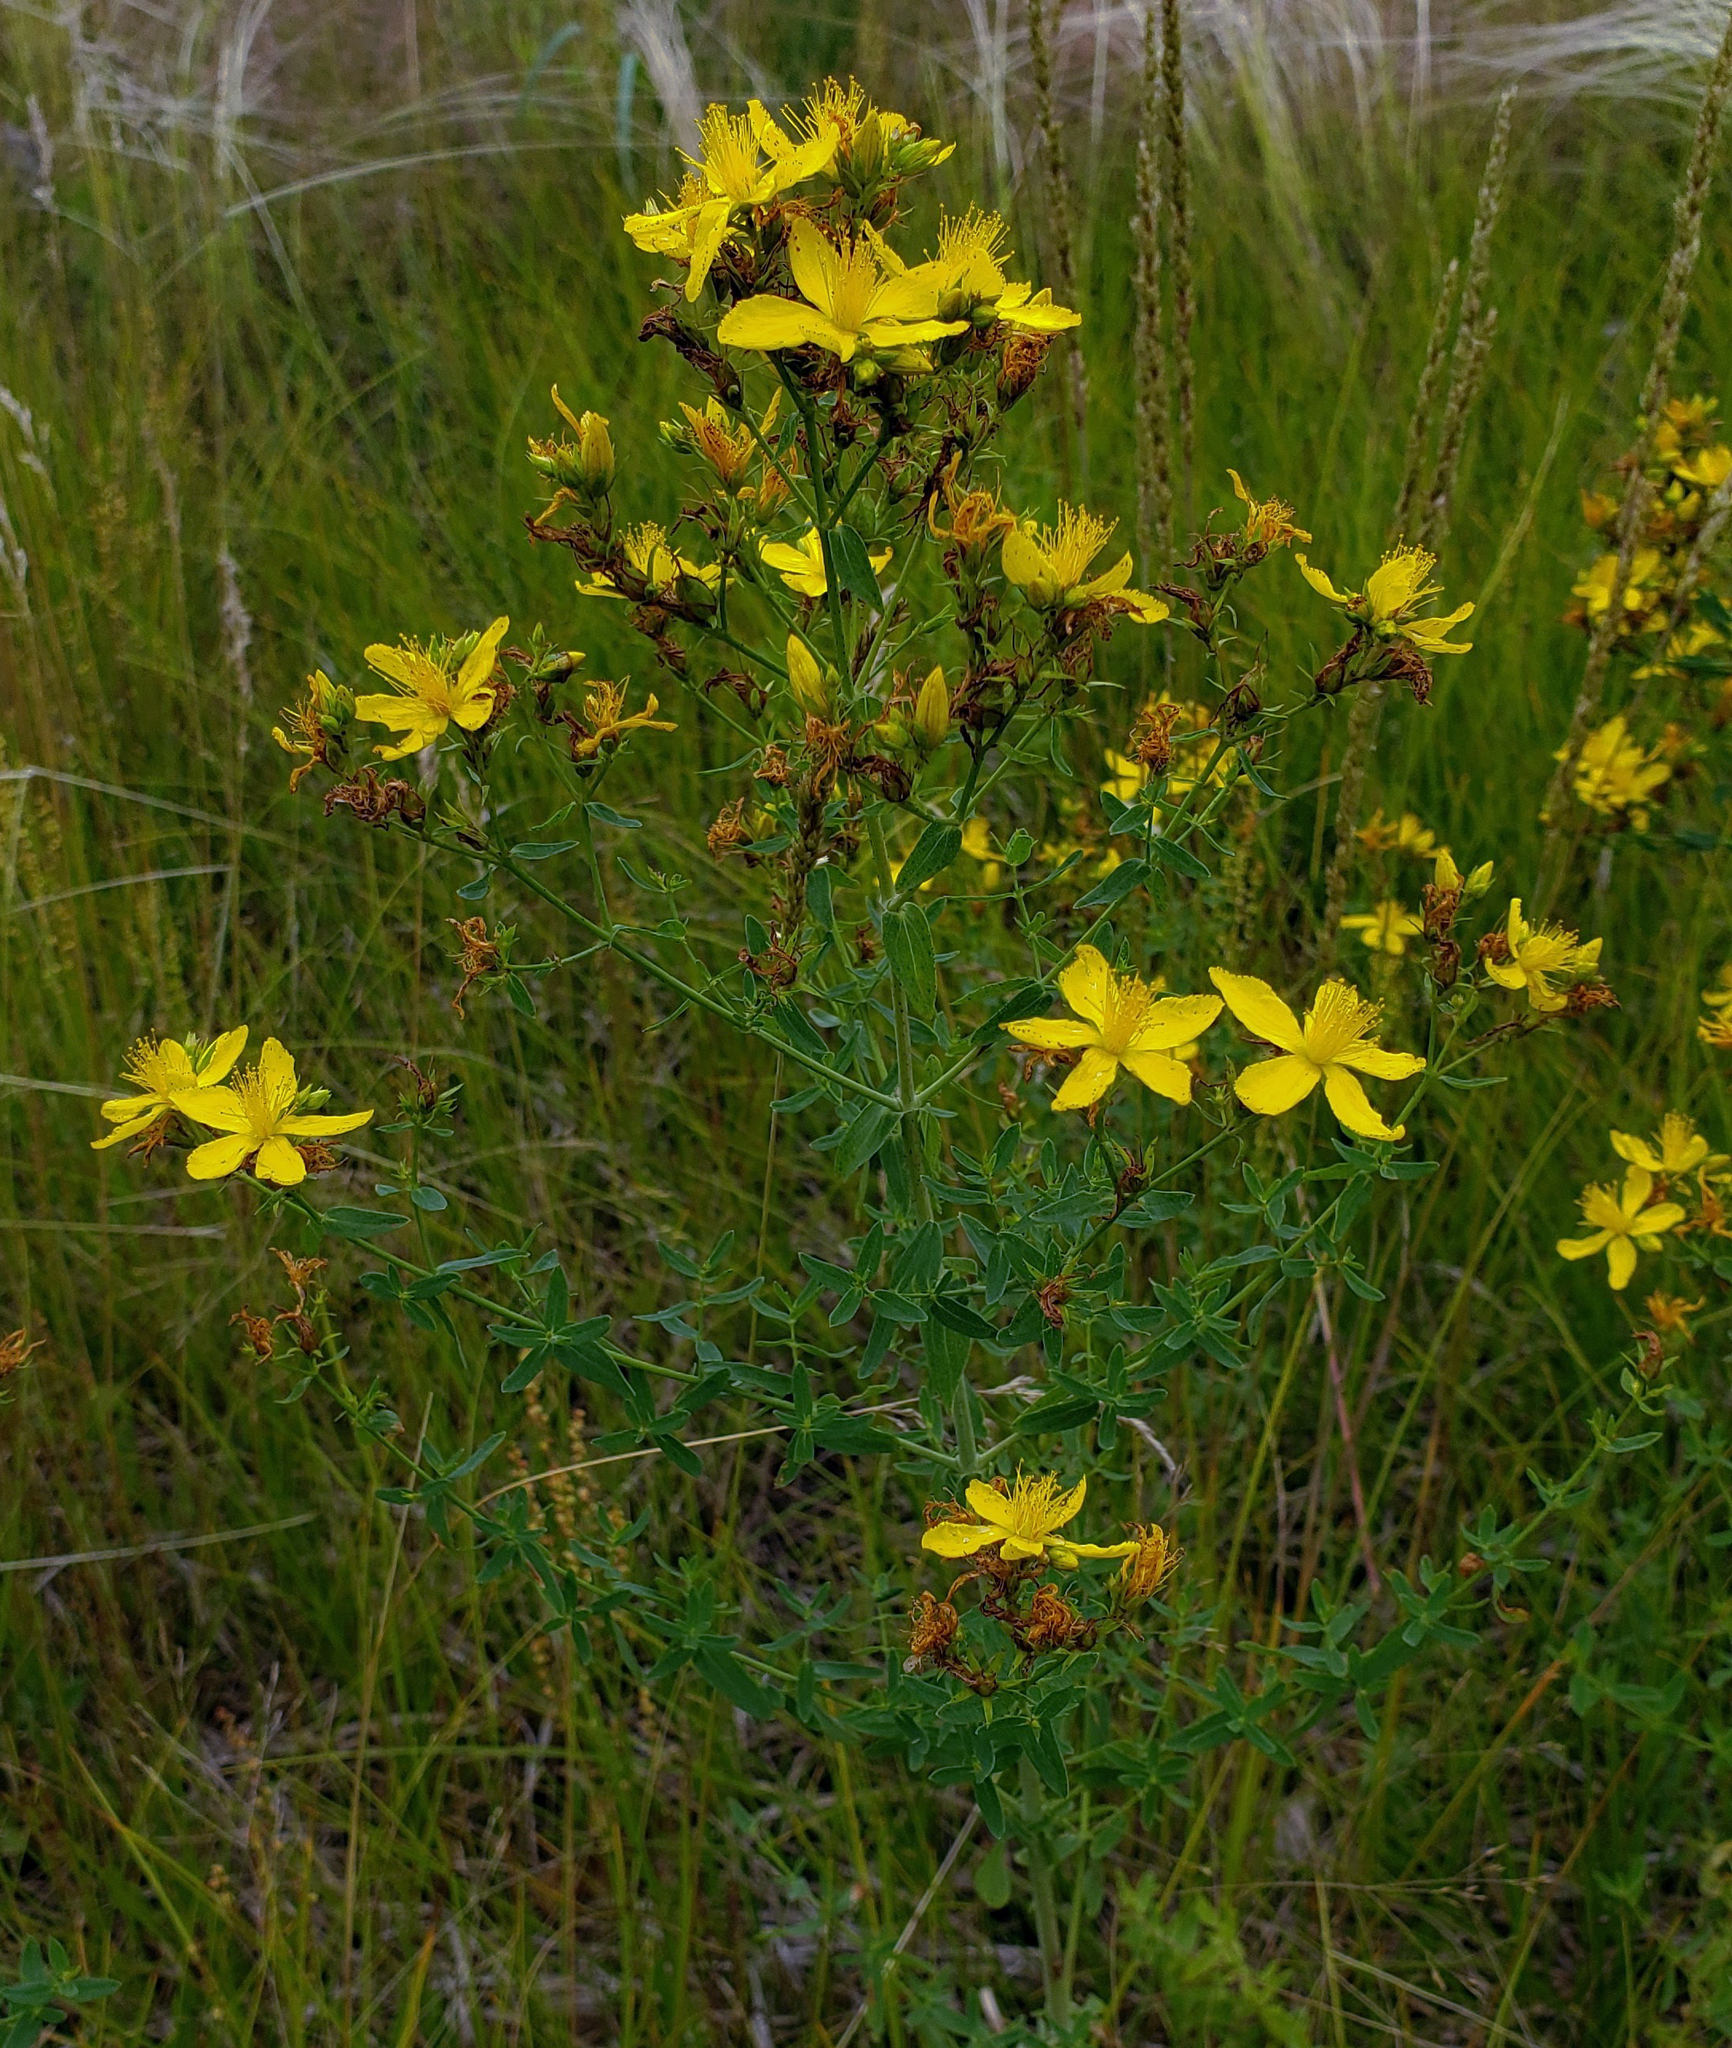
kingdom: Plantae
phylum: Tracheophyta
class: Magnoliopsida
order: Malpighiales
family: Hypericaceae
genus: Hypericum
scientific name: Hypericum perforatum
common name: Common st. johnswort
